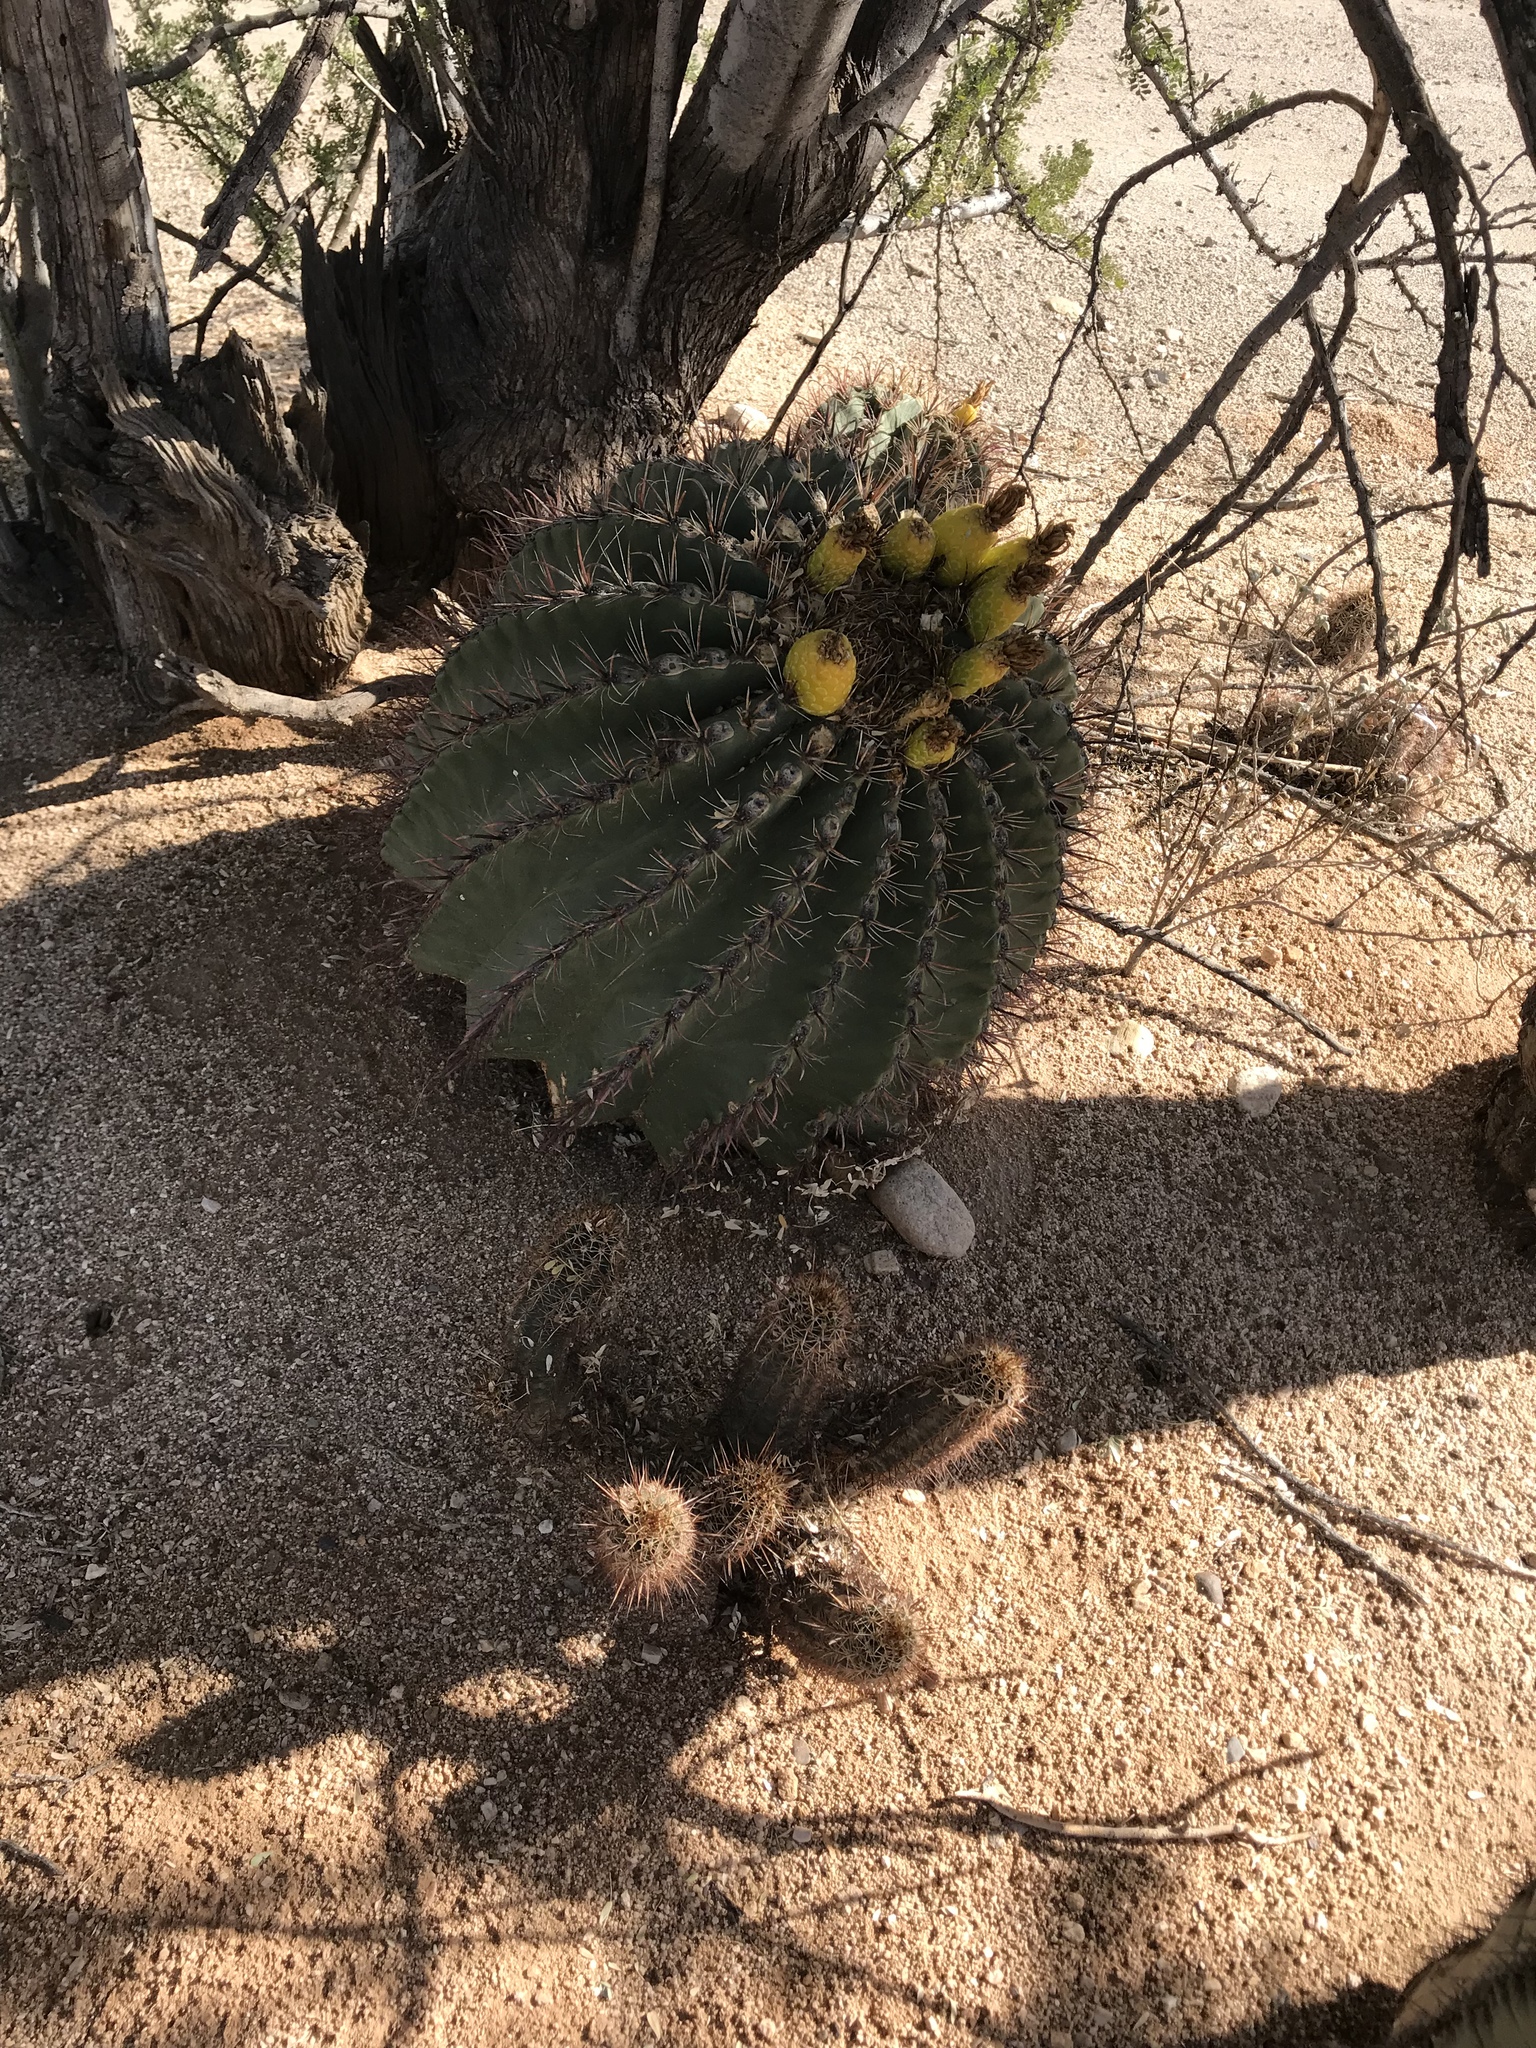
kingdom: Plantae
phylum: Tracheophyta
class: Magnoliopsida
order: Caryophyllales
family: Cactaceae
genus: Ferocactus
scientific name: Ferocactus wislizeni
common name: Candy barrel cactus
